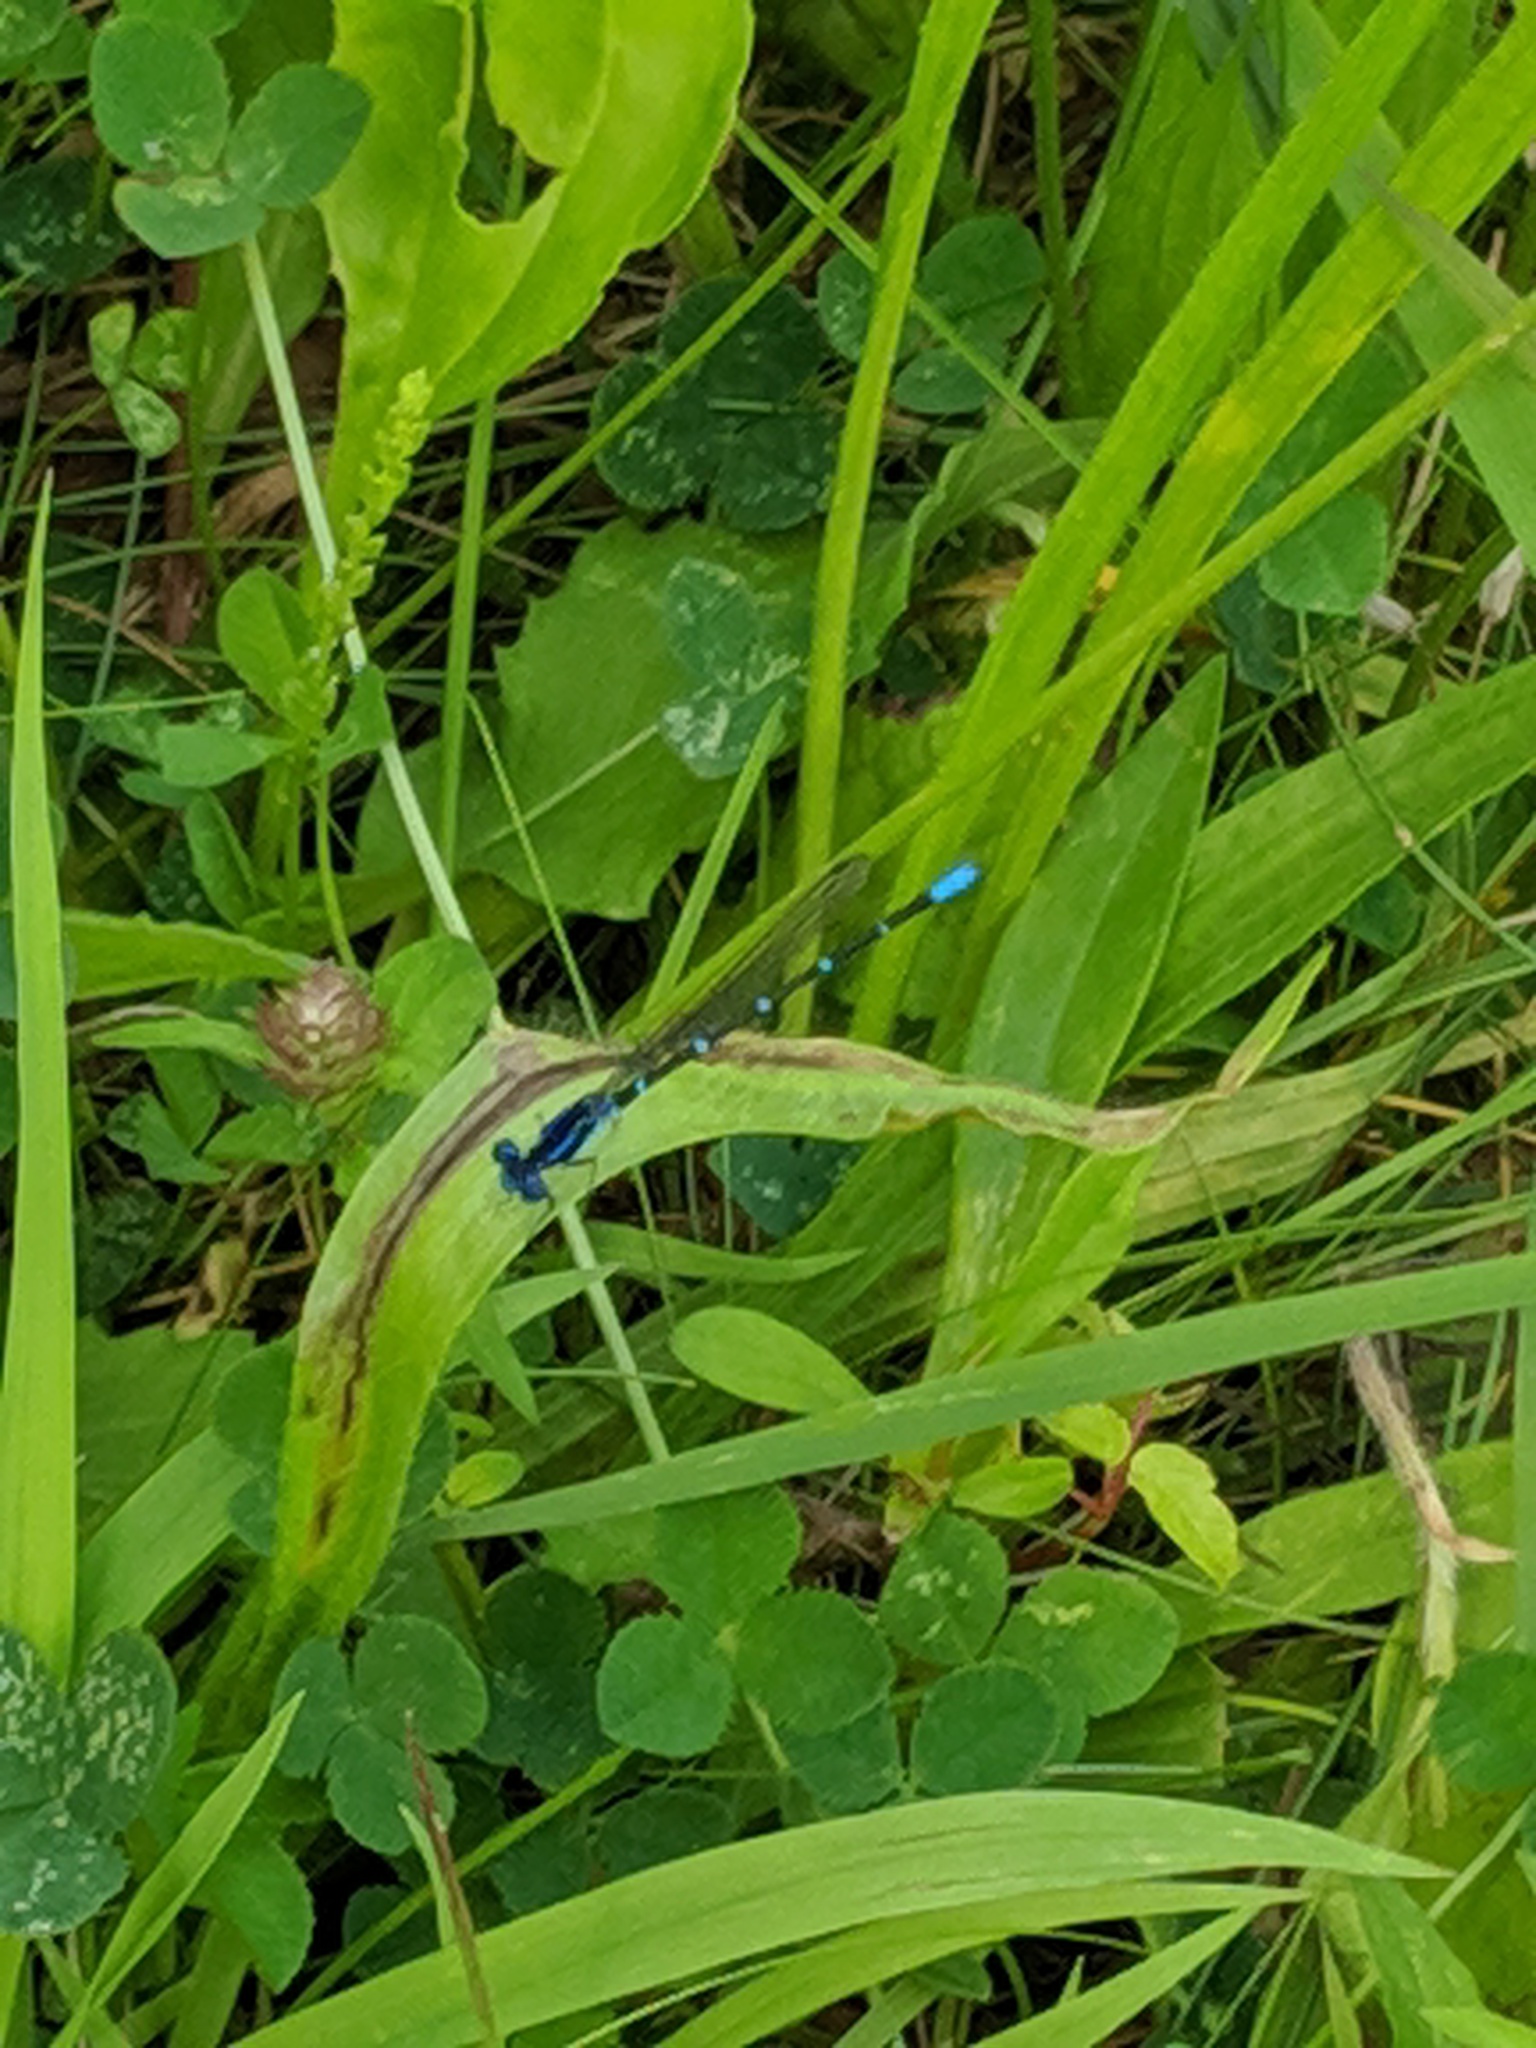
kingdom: Animalia
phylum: Arthropoda
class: Insecta
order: Odonata
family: Coenagrionidae
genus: Argia
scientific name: Argia sedula
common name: Blue-ringed dancer
